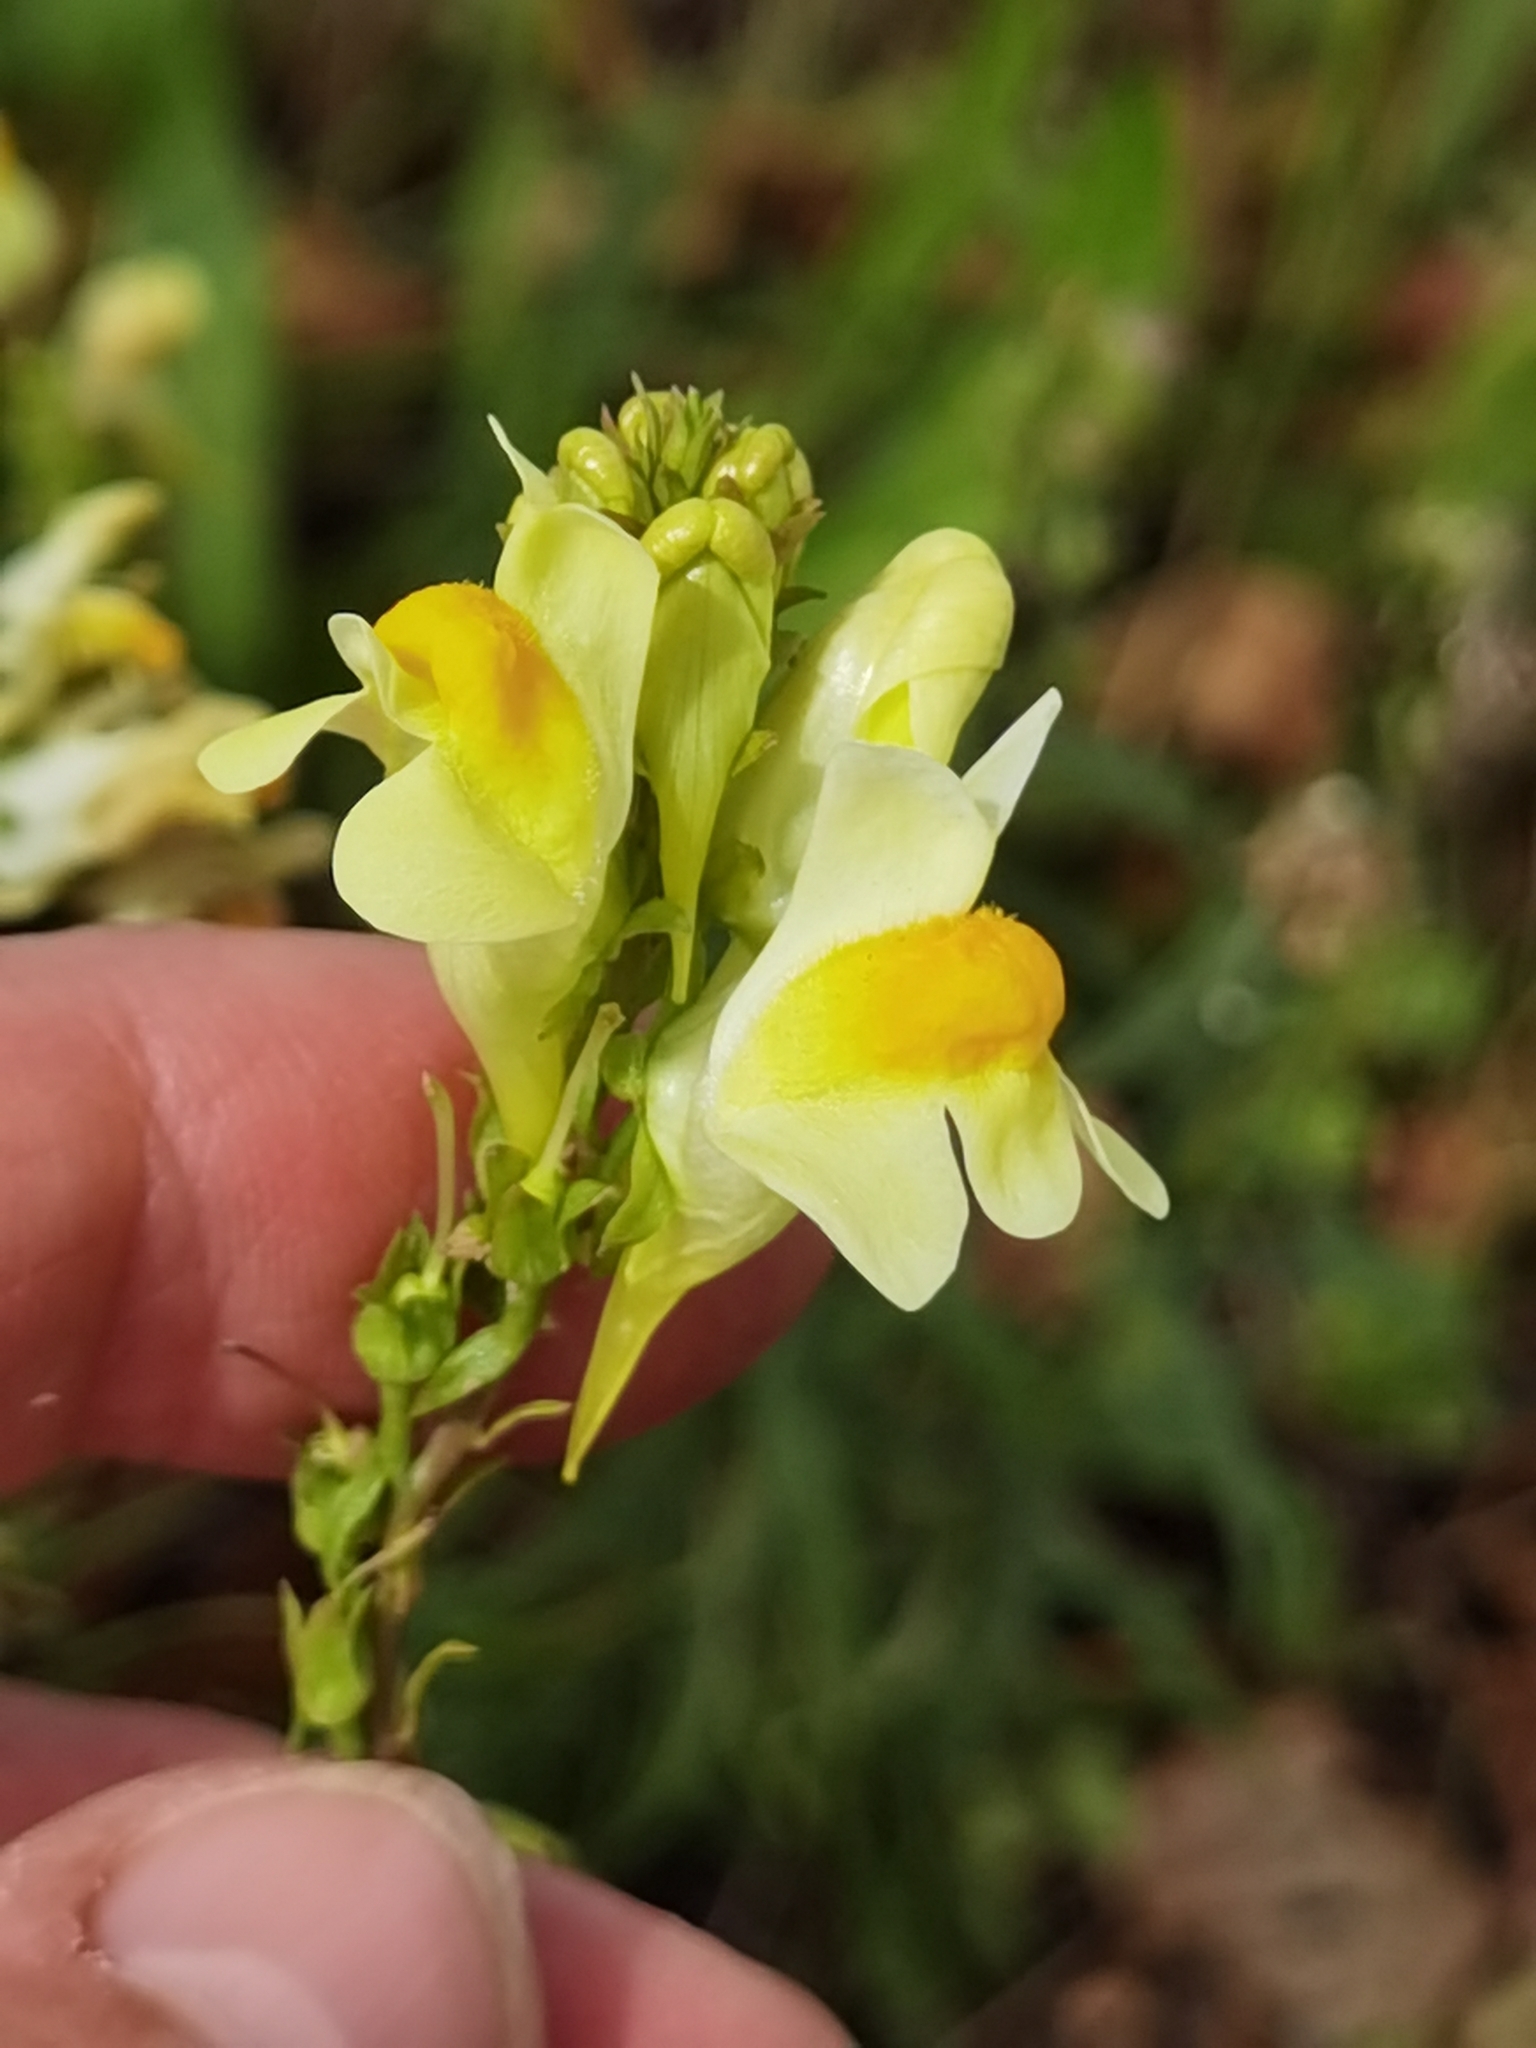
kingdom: Plantae
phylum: Tracheophyta
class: Magnoliopsida
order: Lamiales
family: Plantaginaceae
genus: Linaria
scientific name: Linaria vulgaris
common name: Butter and eggs
